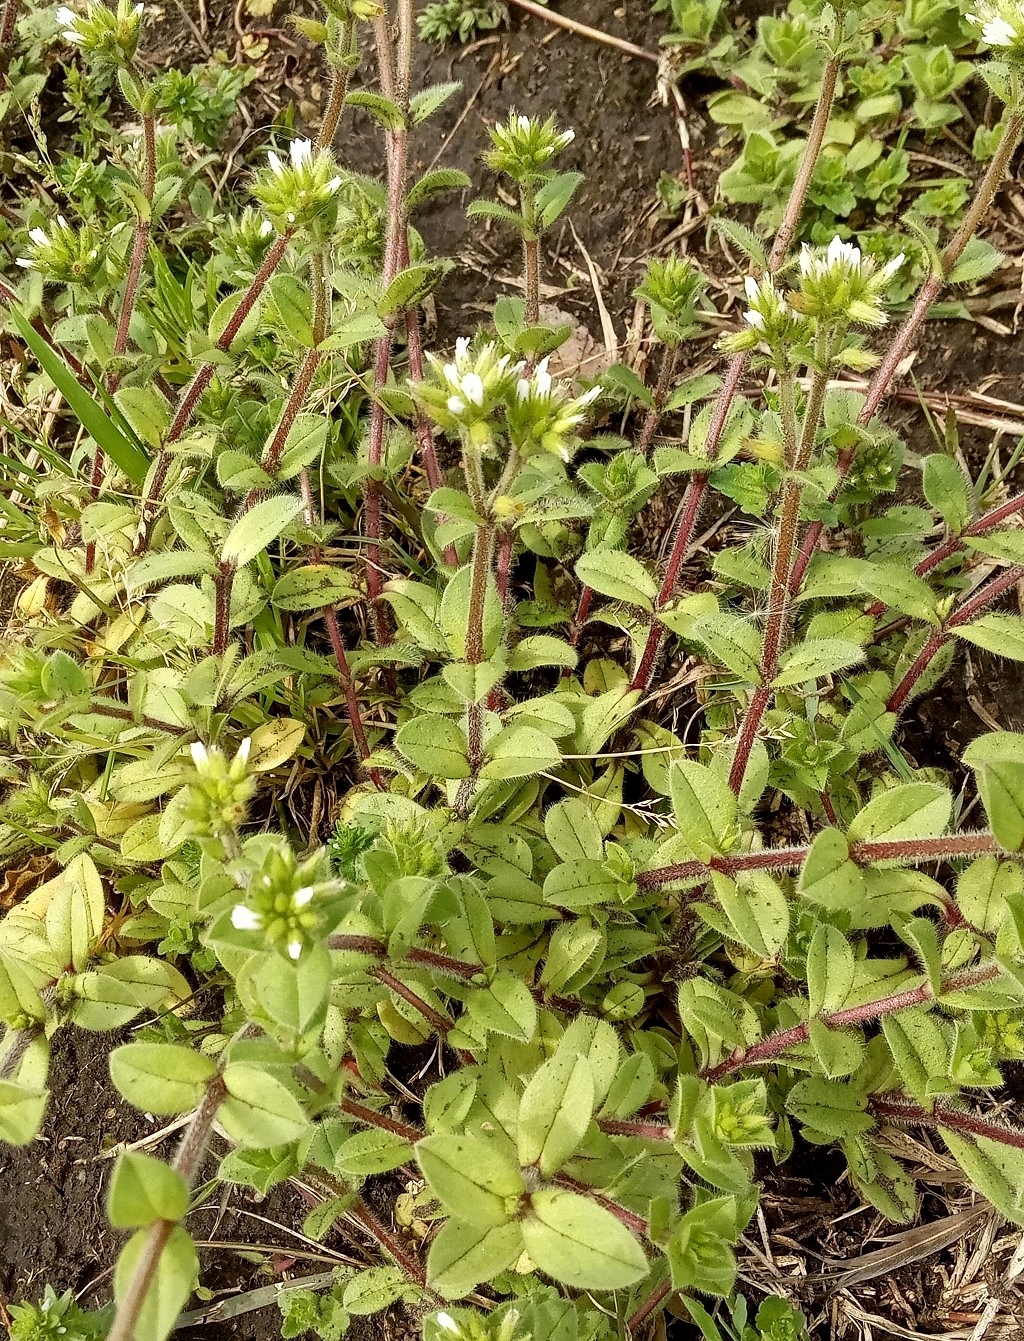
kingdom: Plantae
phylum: Tracheophyta
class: Magnoliopsida
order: Caryophyllales
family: Caryophyllaceae
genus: Cerastium
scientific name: Cerastium junceum
